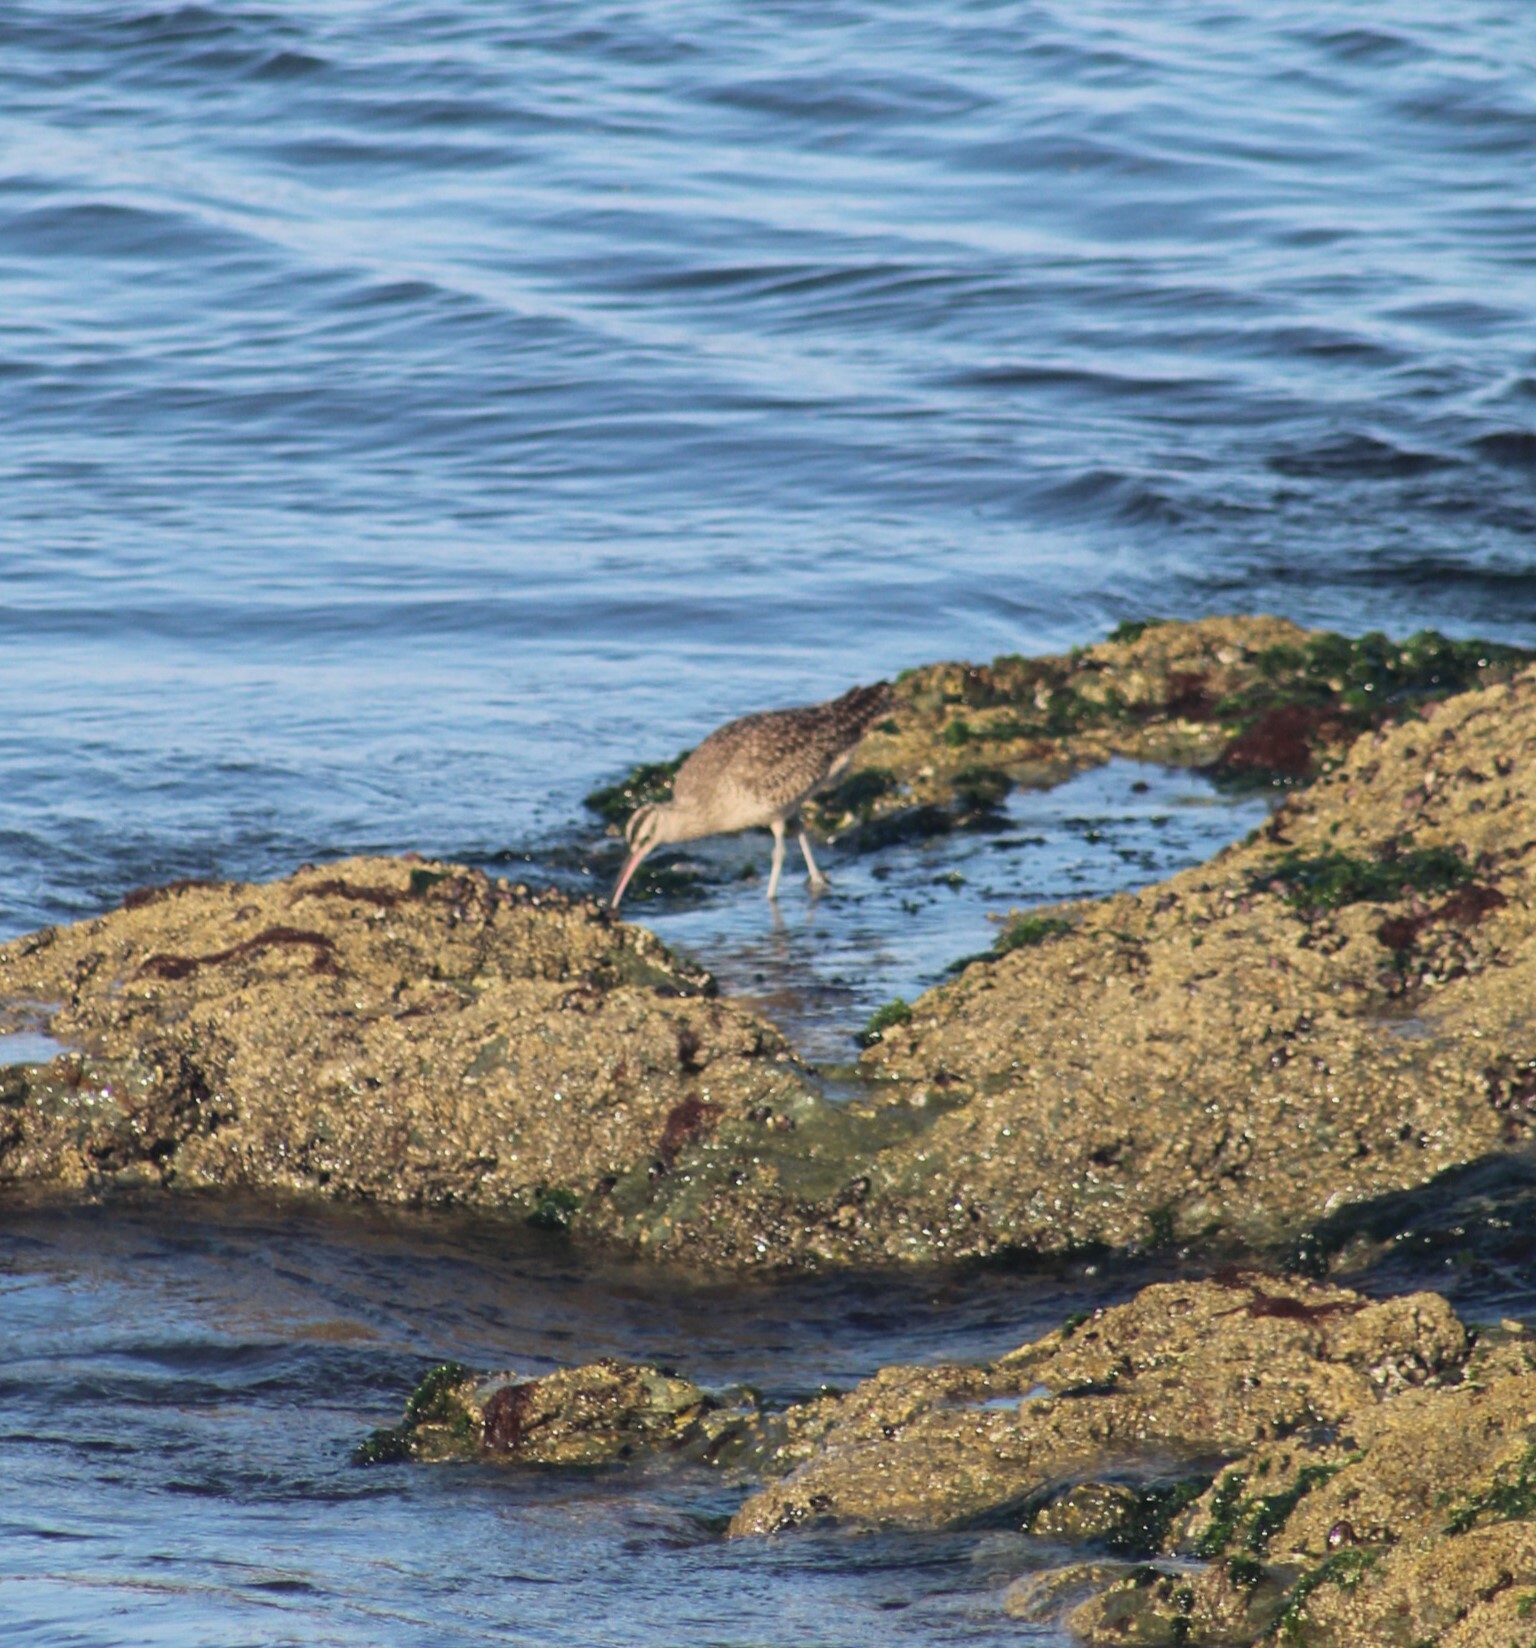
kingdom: Animalia
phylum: Chordata
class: Aves
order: Charadriiformes
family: Scolopacidae
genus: Numenius
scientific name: Numenius phaeopus
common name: Whimbrel
